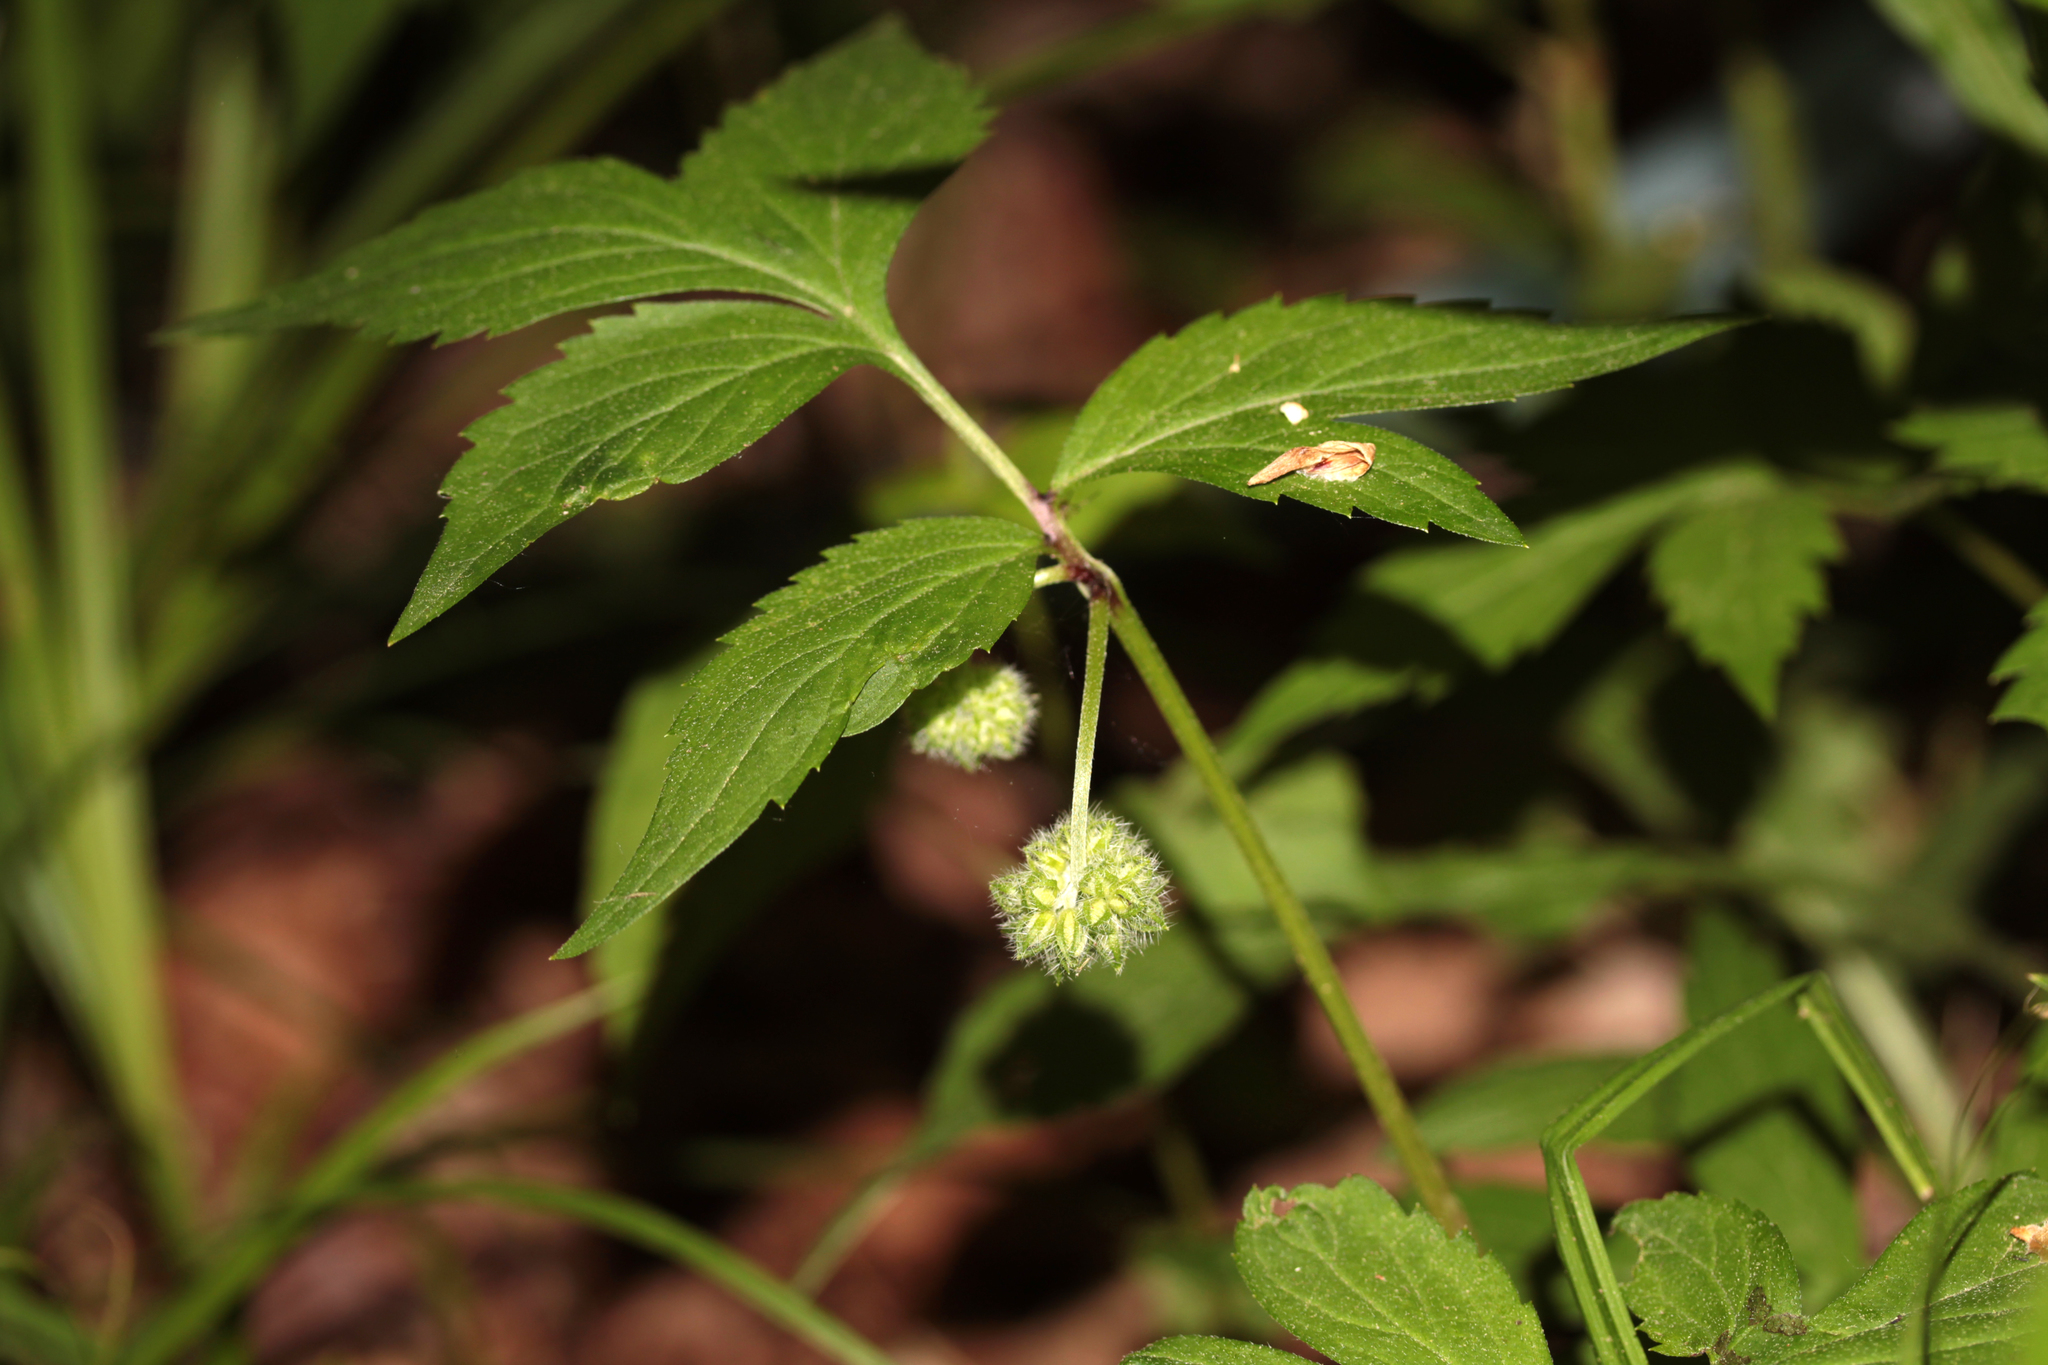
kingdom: Plantae
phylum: Tracheophyta
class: Magnoliopsida
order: Boraginales
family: Hydrophyllaceae
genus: Hydrophyllum
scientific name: Hydrophyllum virginianum
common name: Virginia waterleaf
